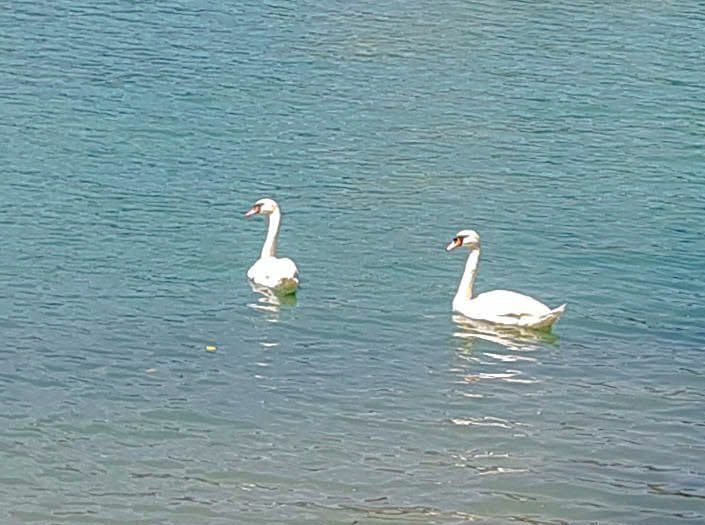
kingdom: Animalia
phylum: Chordata
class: Aves
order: Anseriformes
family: Anatidae
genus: Cygnus
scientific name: Cygnus olor
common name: Mute swan
